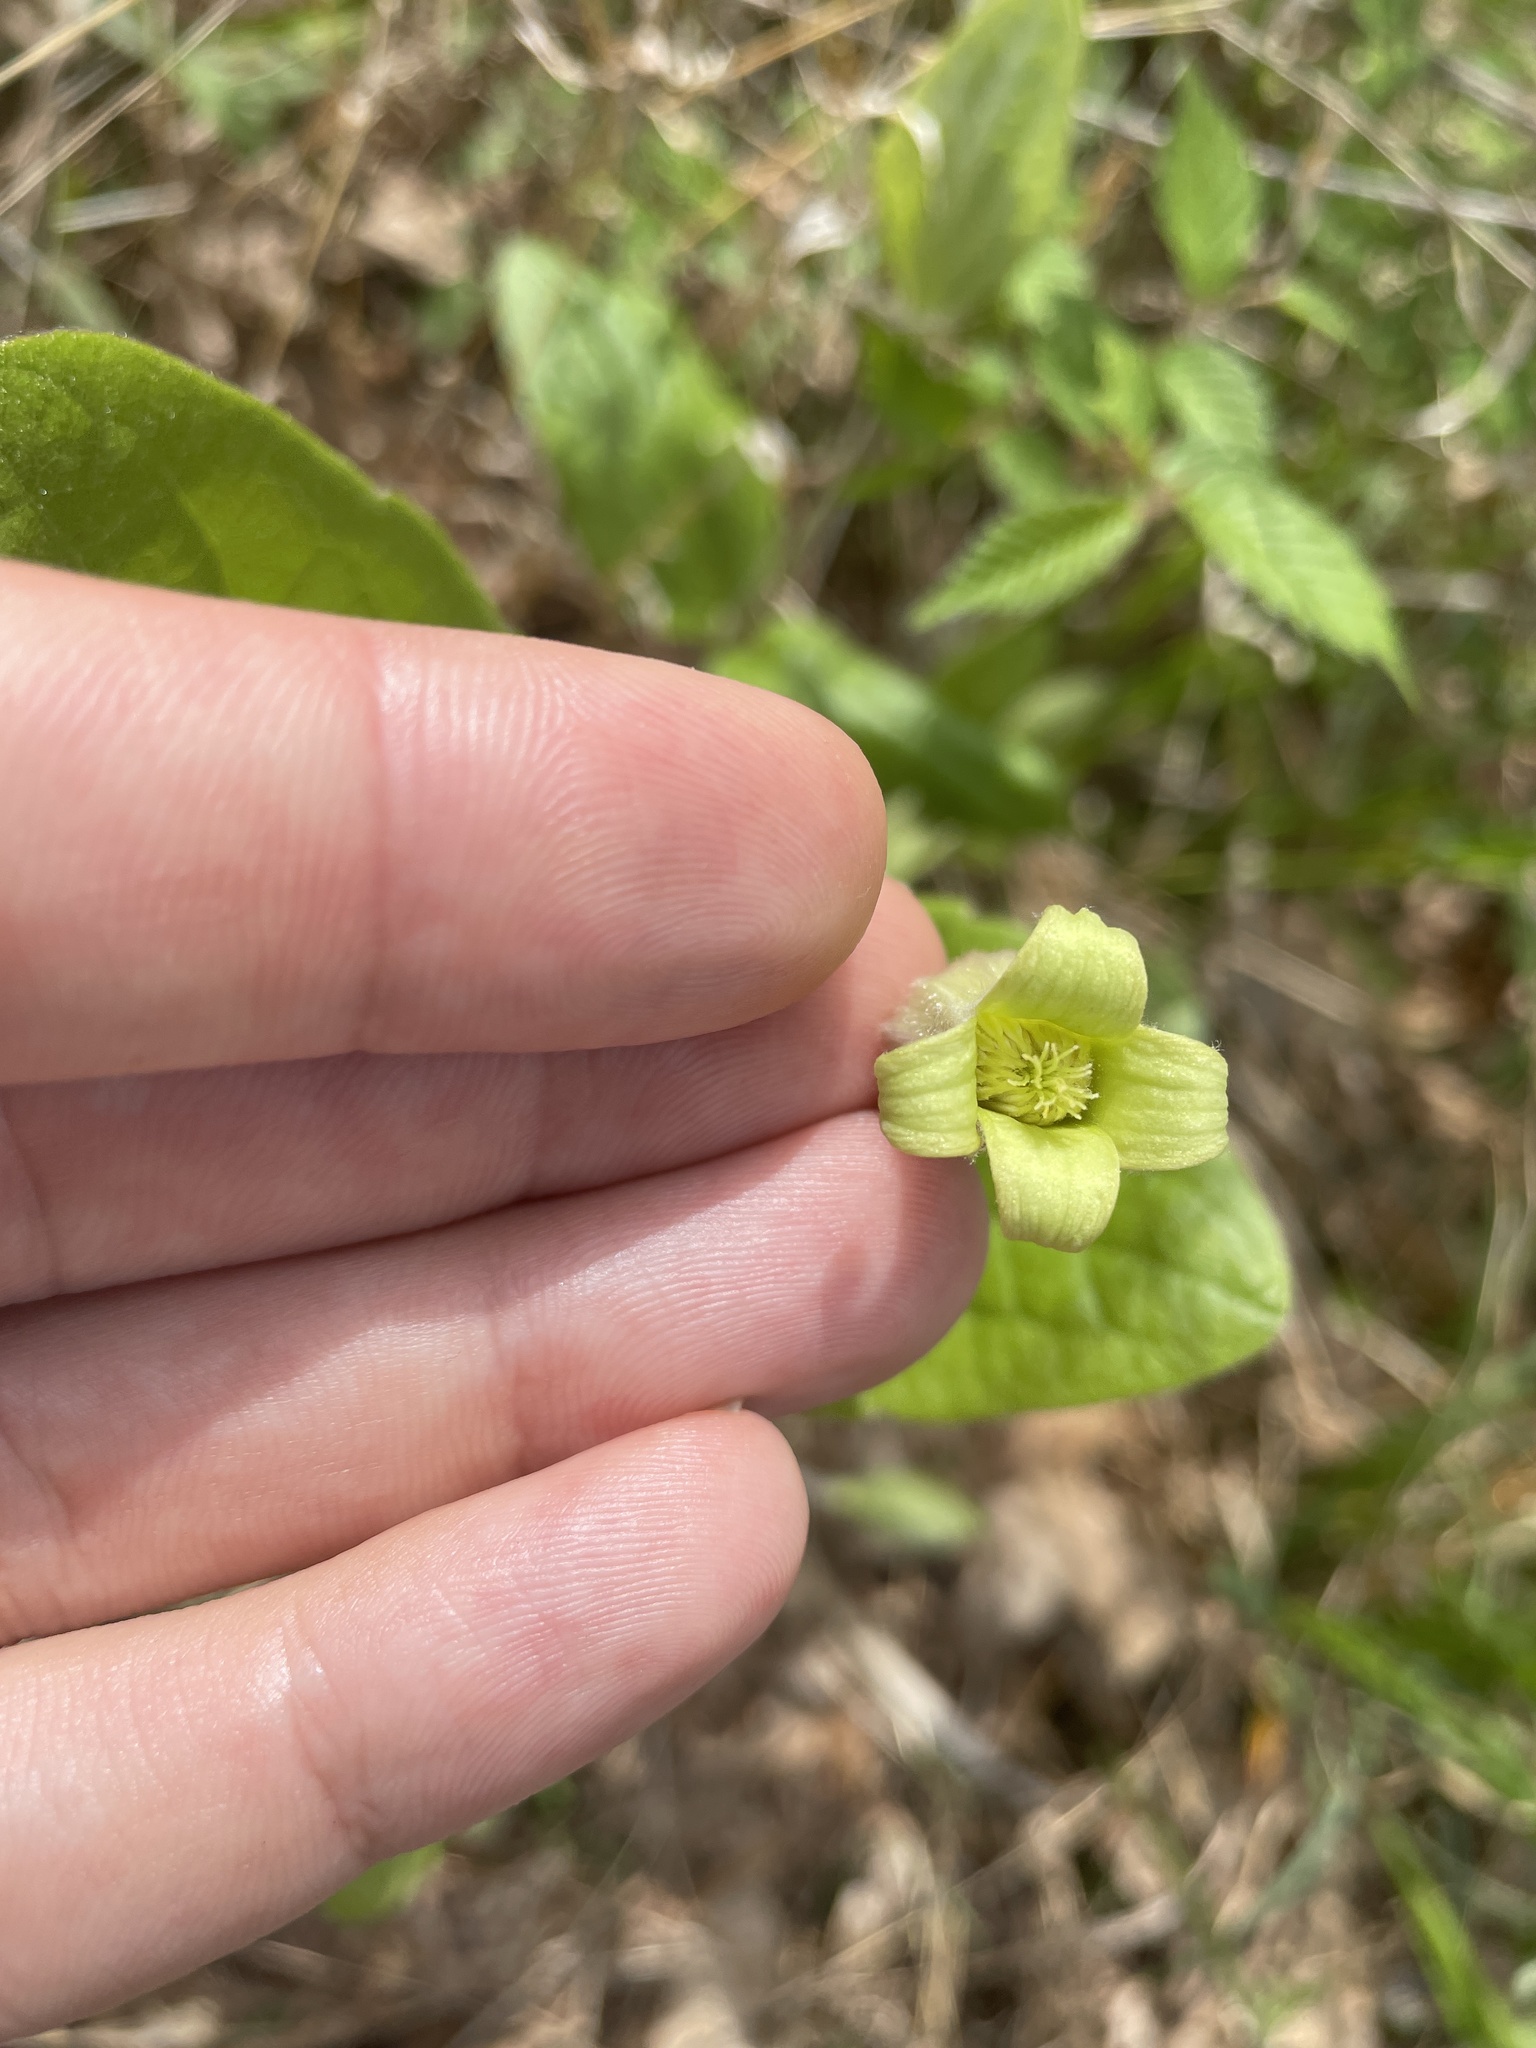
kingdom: Plantae
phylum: Tracheophyta
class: Magnoliopsida
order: Ranunculales
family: Ranunculaceae
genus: Clematis
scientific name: Clematis ochroleuca
